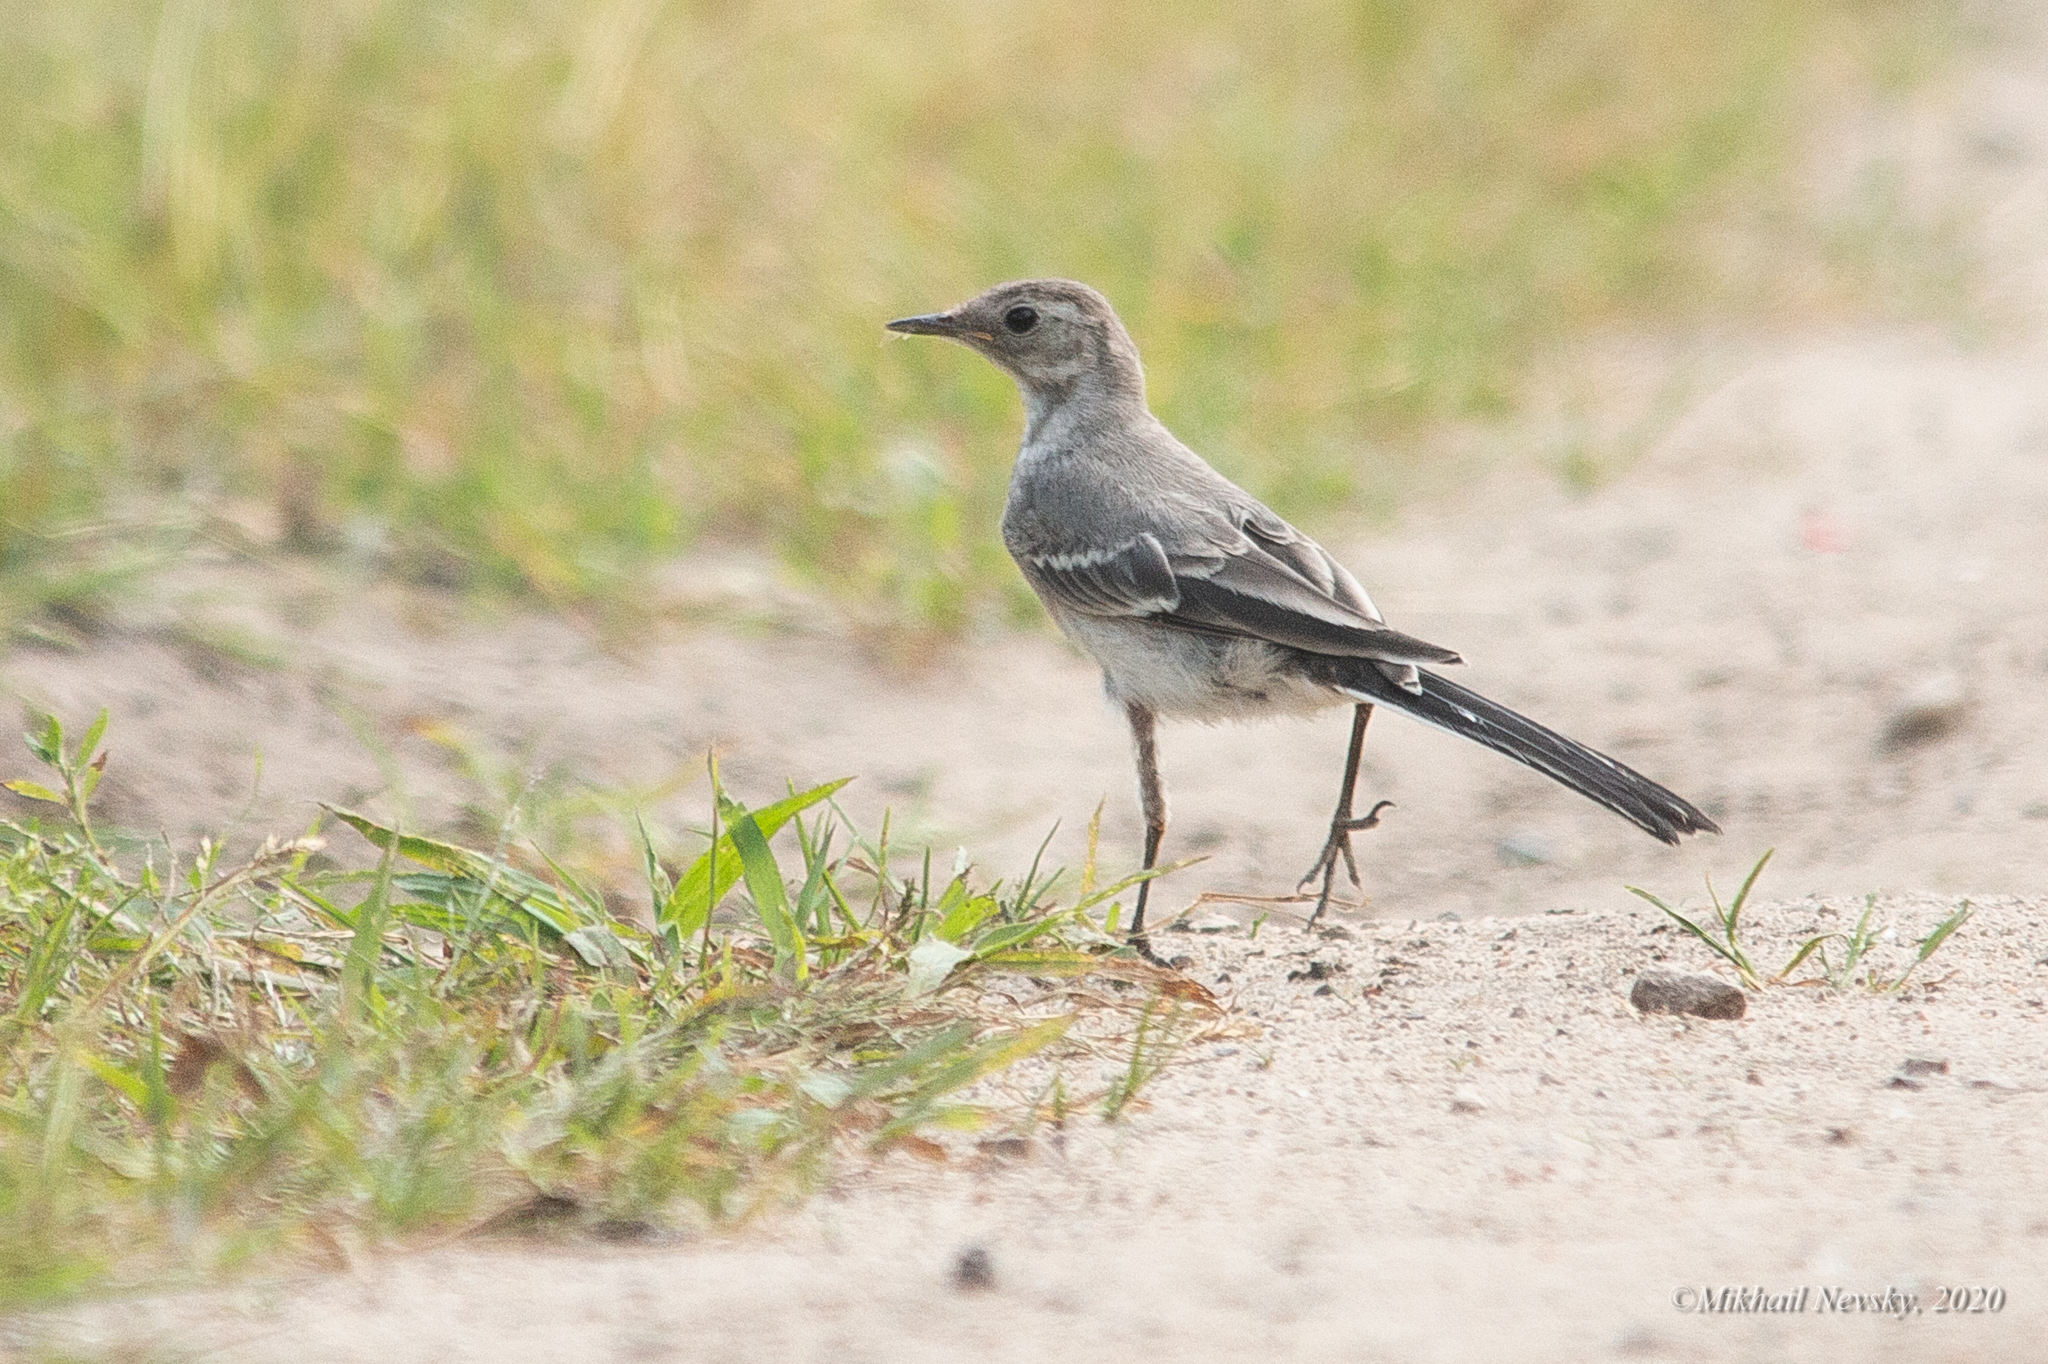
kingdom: Animalia
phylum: Chordata
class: Aves
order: Passeriformes
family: Motacillidae
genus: Motacilla
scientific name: Motacilla alba
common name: White wagtail
